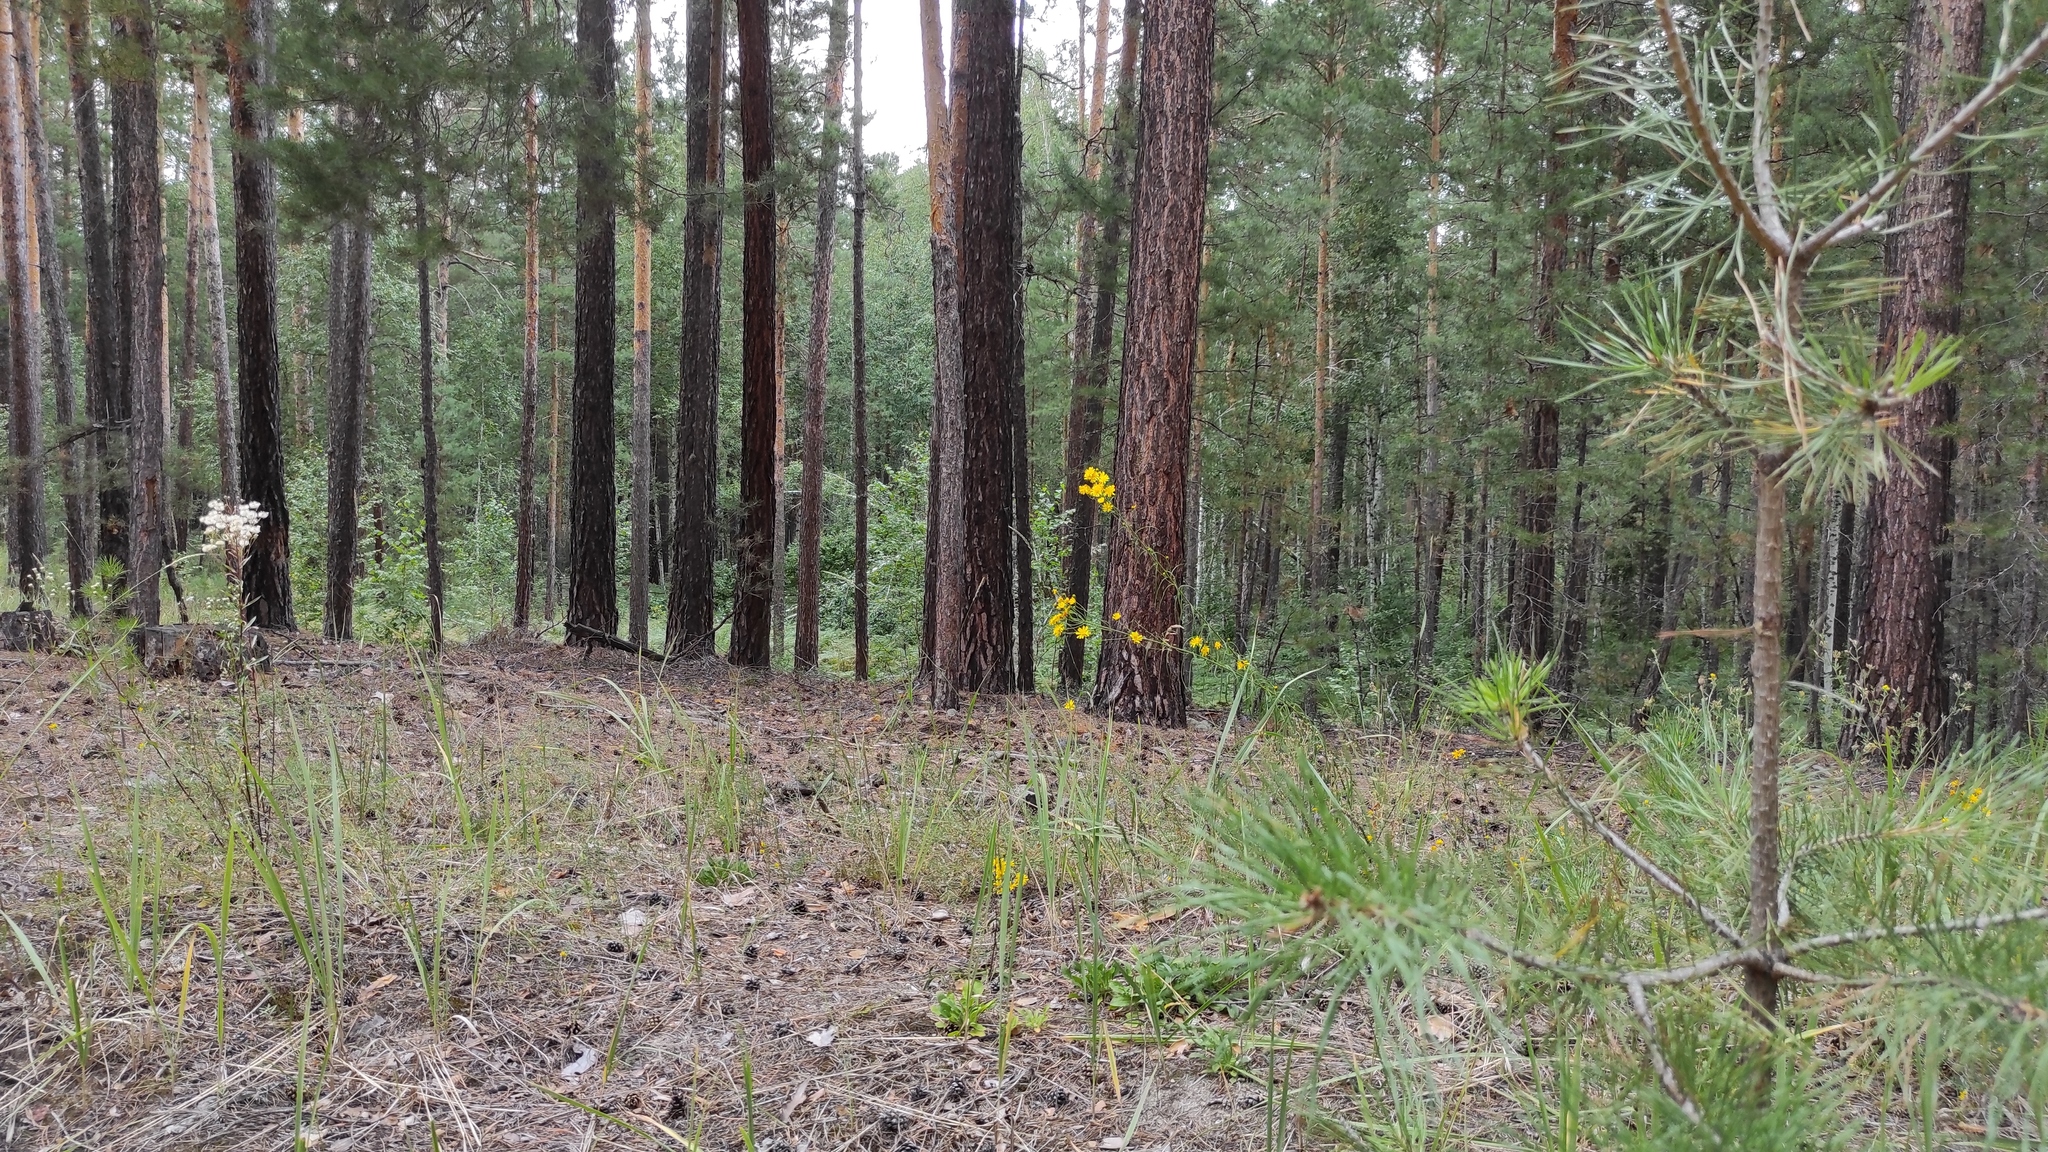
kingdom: Plantae
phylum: Tracheophyta
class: Pinopsida
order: Pinales
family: Pinaceae
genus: Pinus
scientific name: Pinus sylvestris
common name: Scots pine
